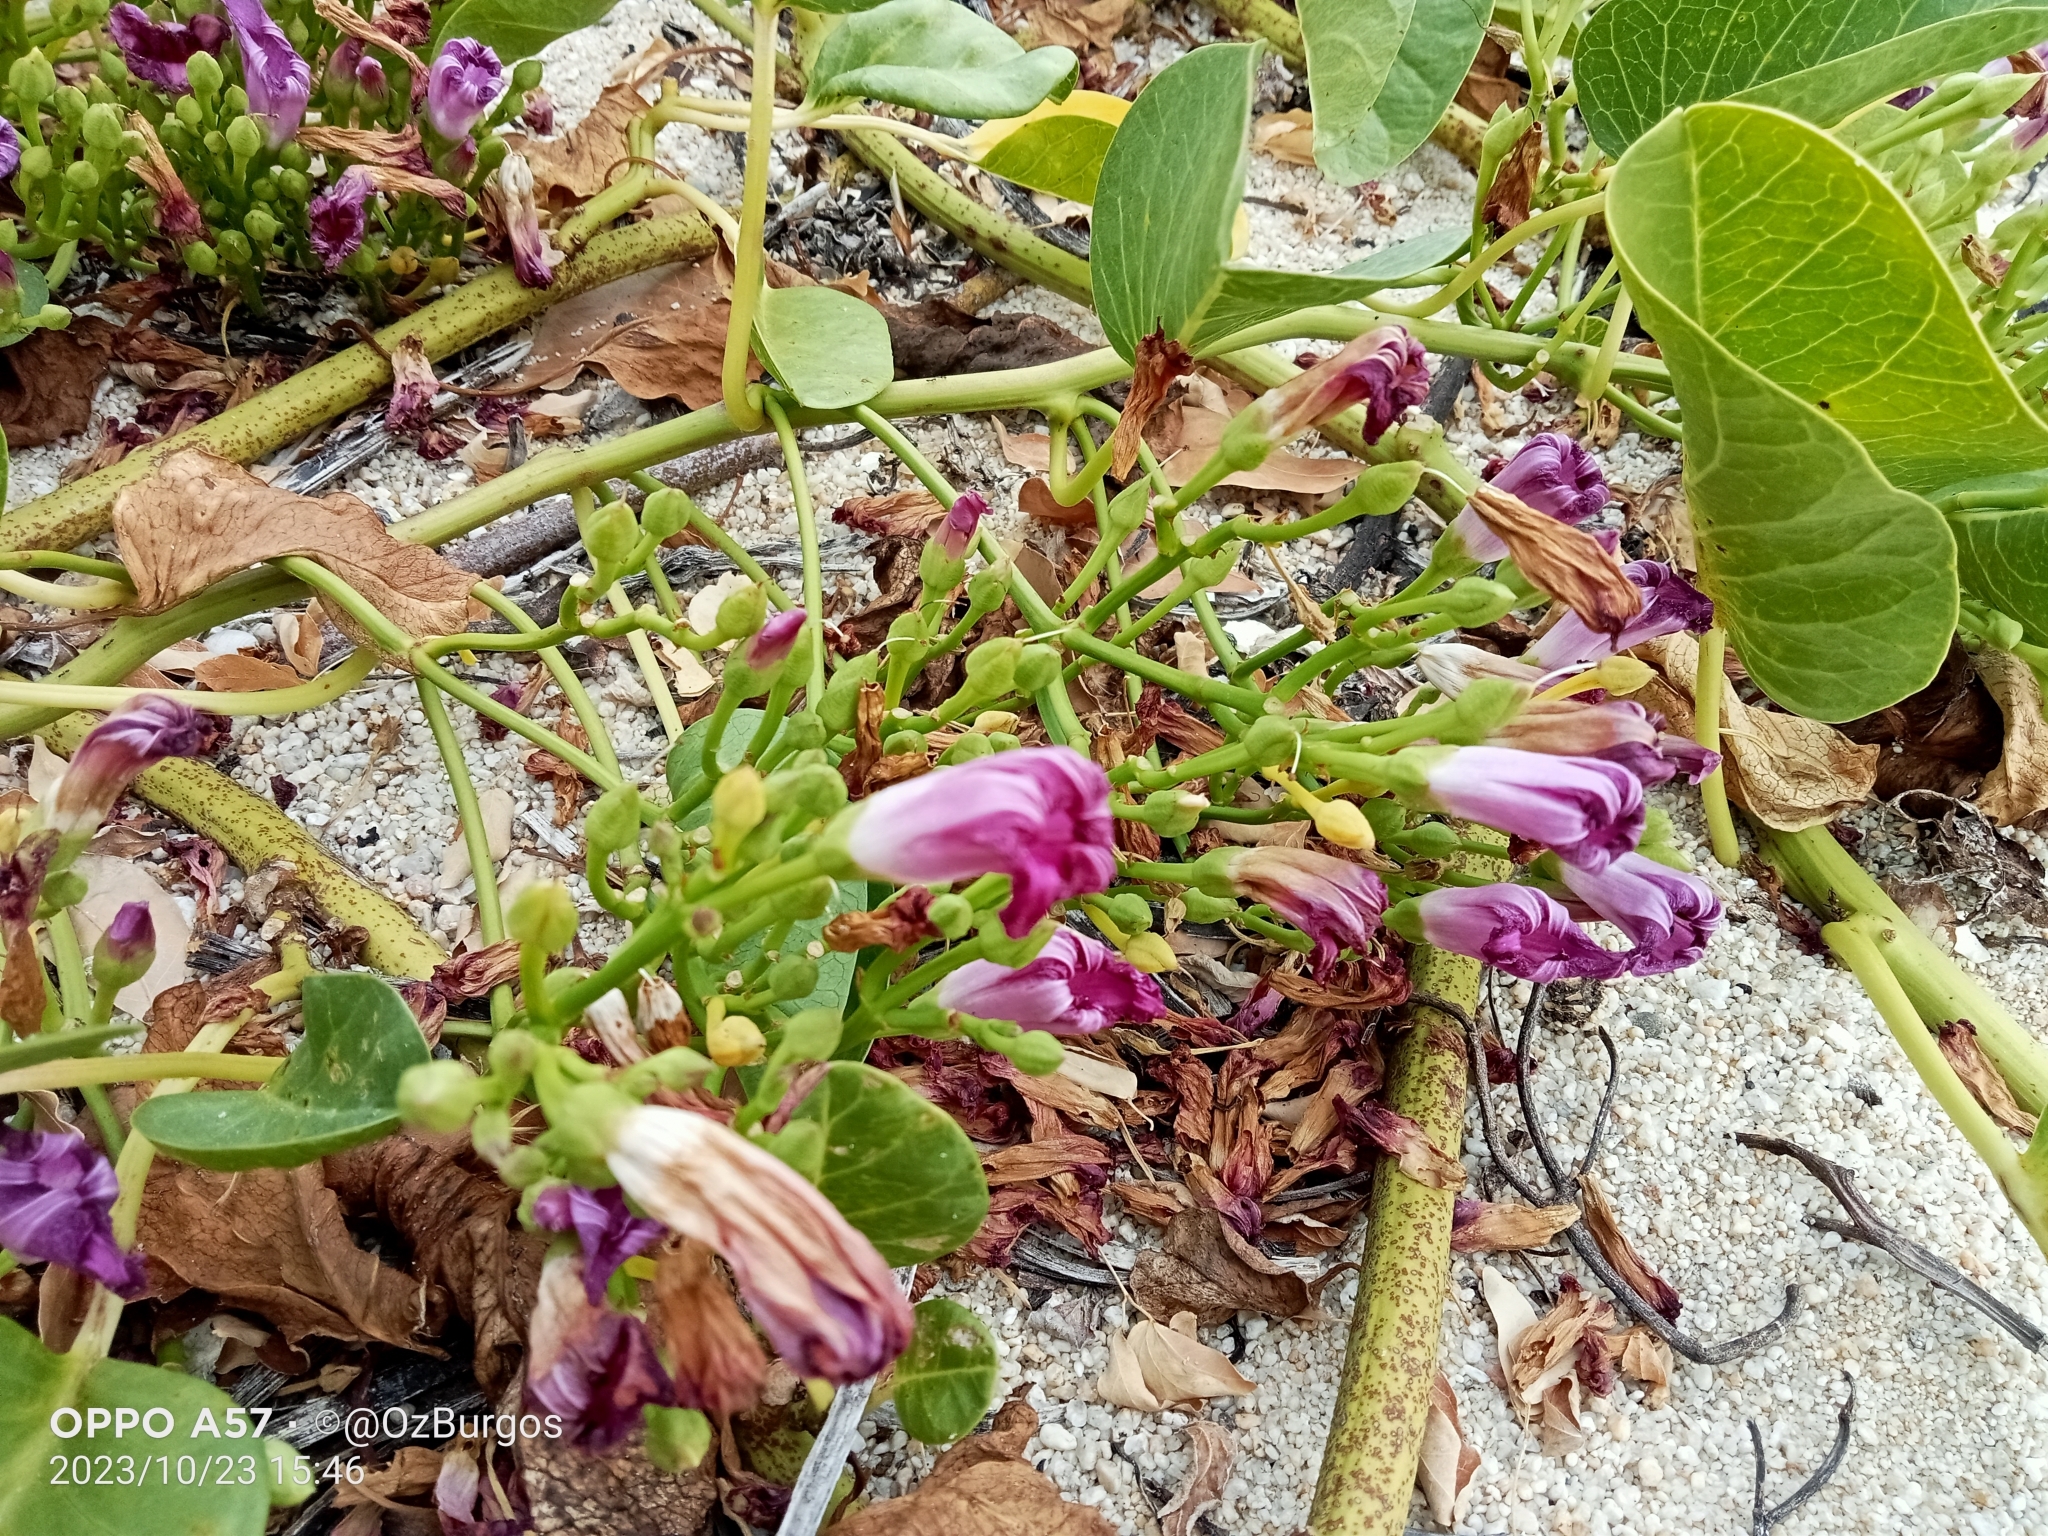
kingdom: Plantae
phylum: Tracheophyta
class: Magnoliopsida
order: Solanales
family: Convolvulaceae
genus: Ipomoea
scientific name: Ipomoea pes-caprae
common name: Beach morning glory
